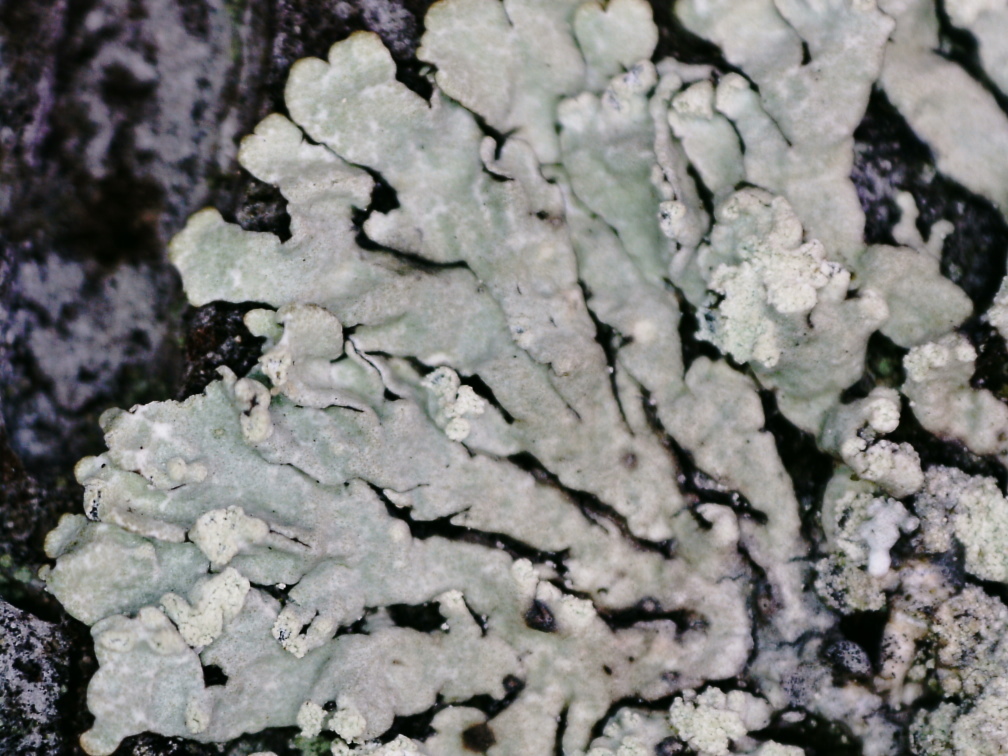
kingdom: Fungi
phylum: Ascomycota
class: Lecanoromycetes
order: Lecanorales
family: Parmeliaceae
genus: Parmeliopsis
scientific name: Parmeliopsis ambigua
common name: Green starburst lichen
